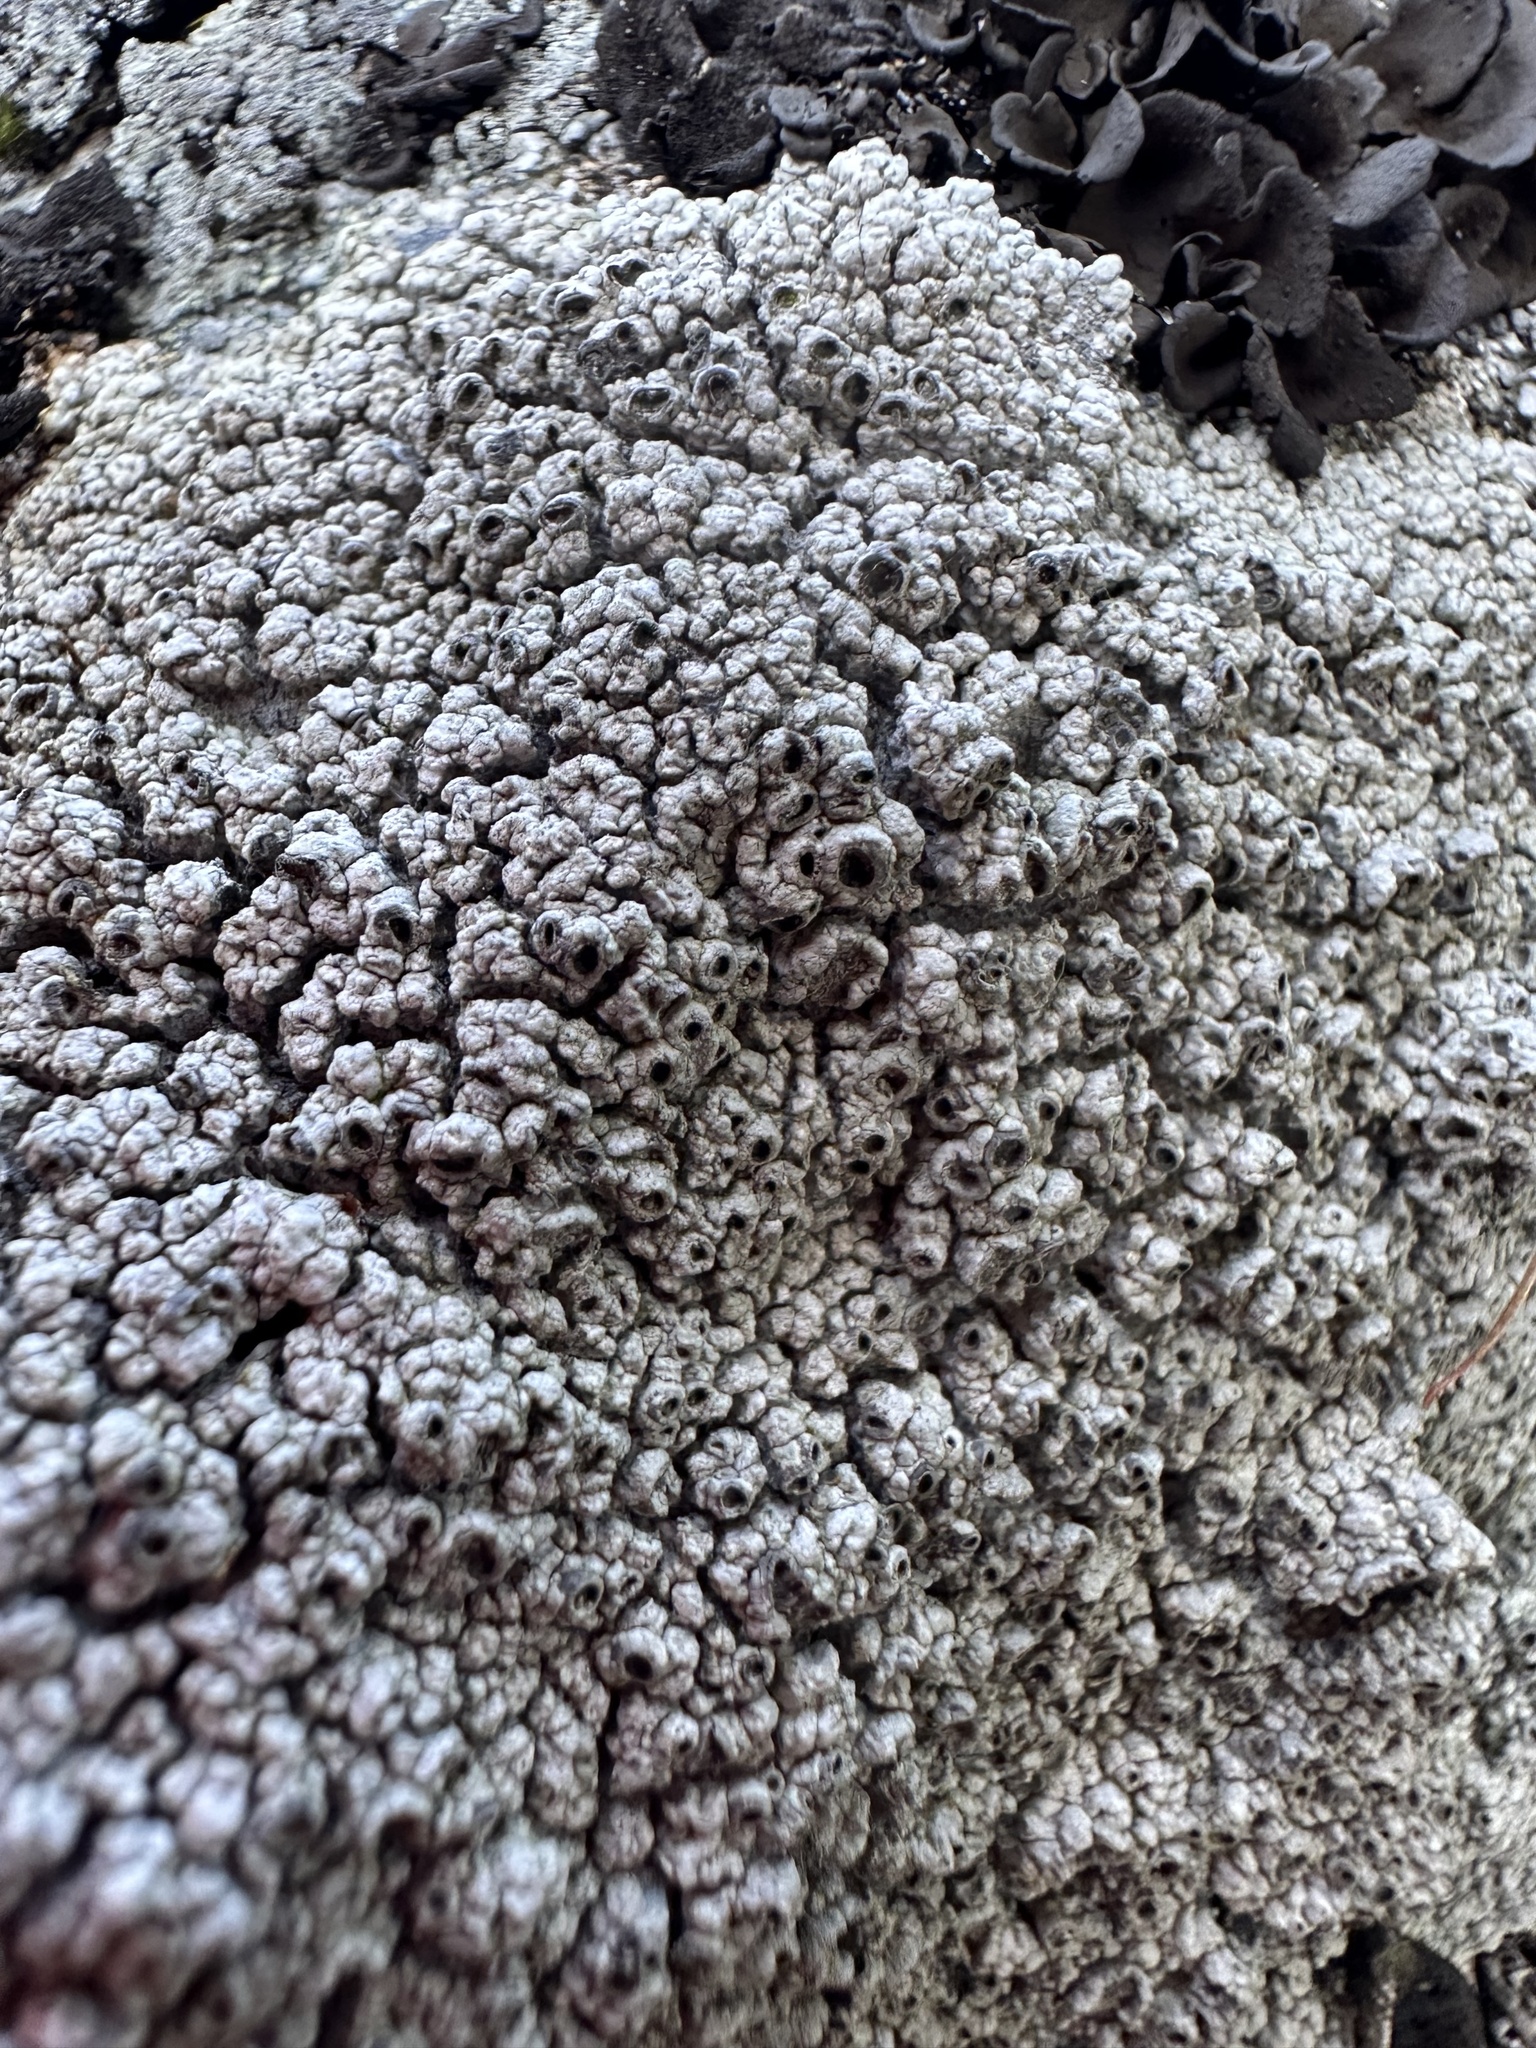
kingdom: Fungi
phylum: Ascomycota
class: Lecanoromycetes
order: Ostropales
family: Graphidaceae
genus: Diploschistes
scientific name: Diploschistes scruposus
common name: Crater lichen
